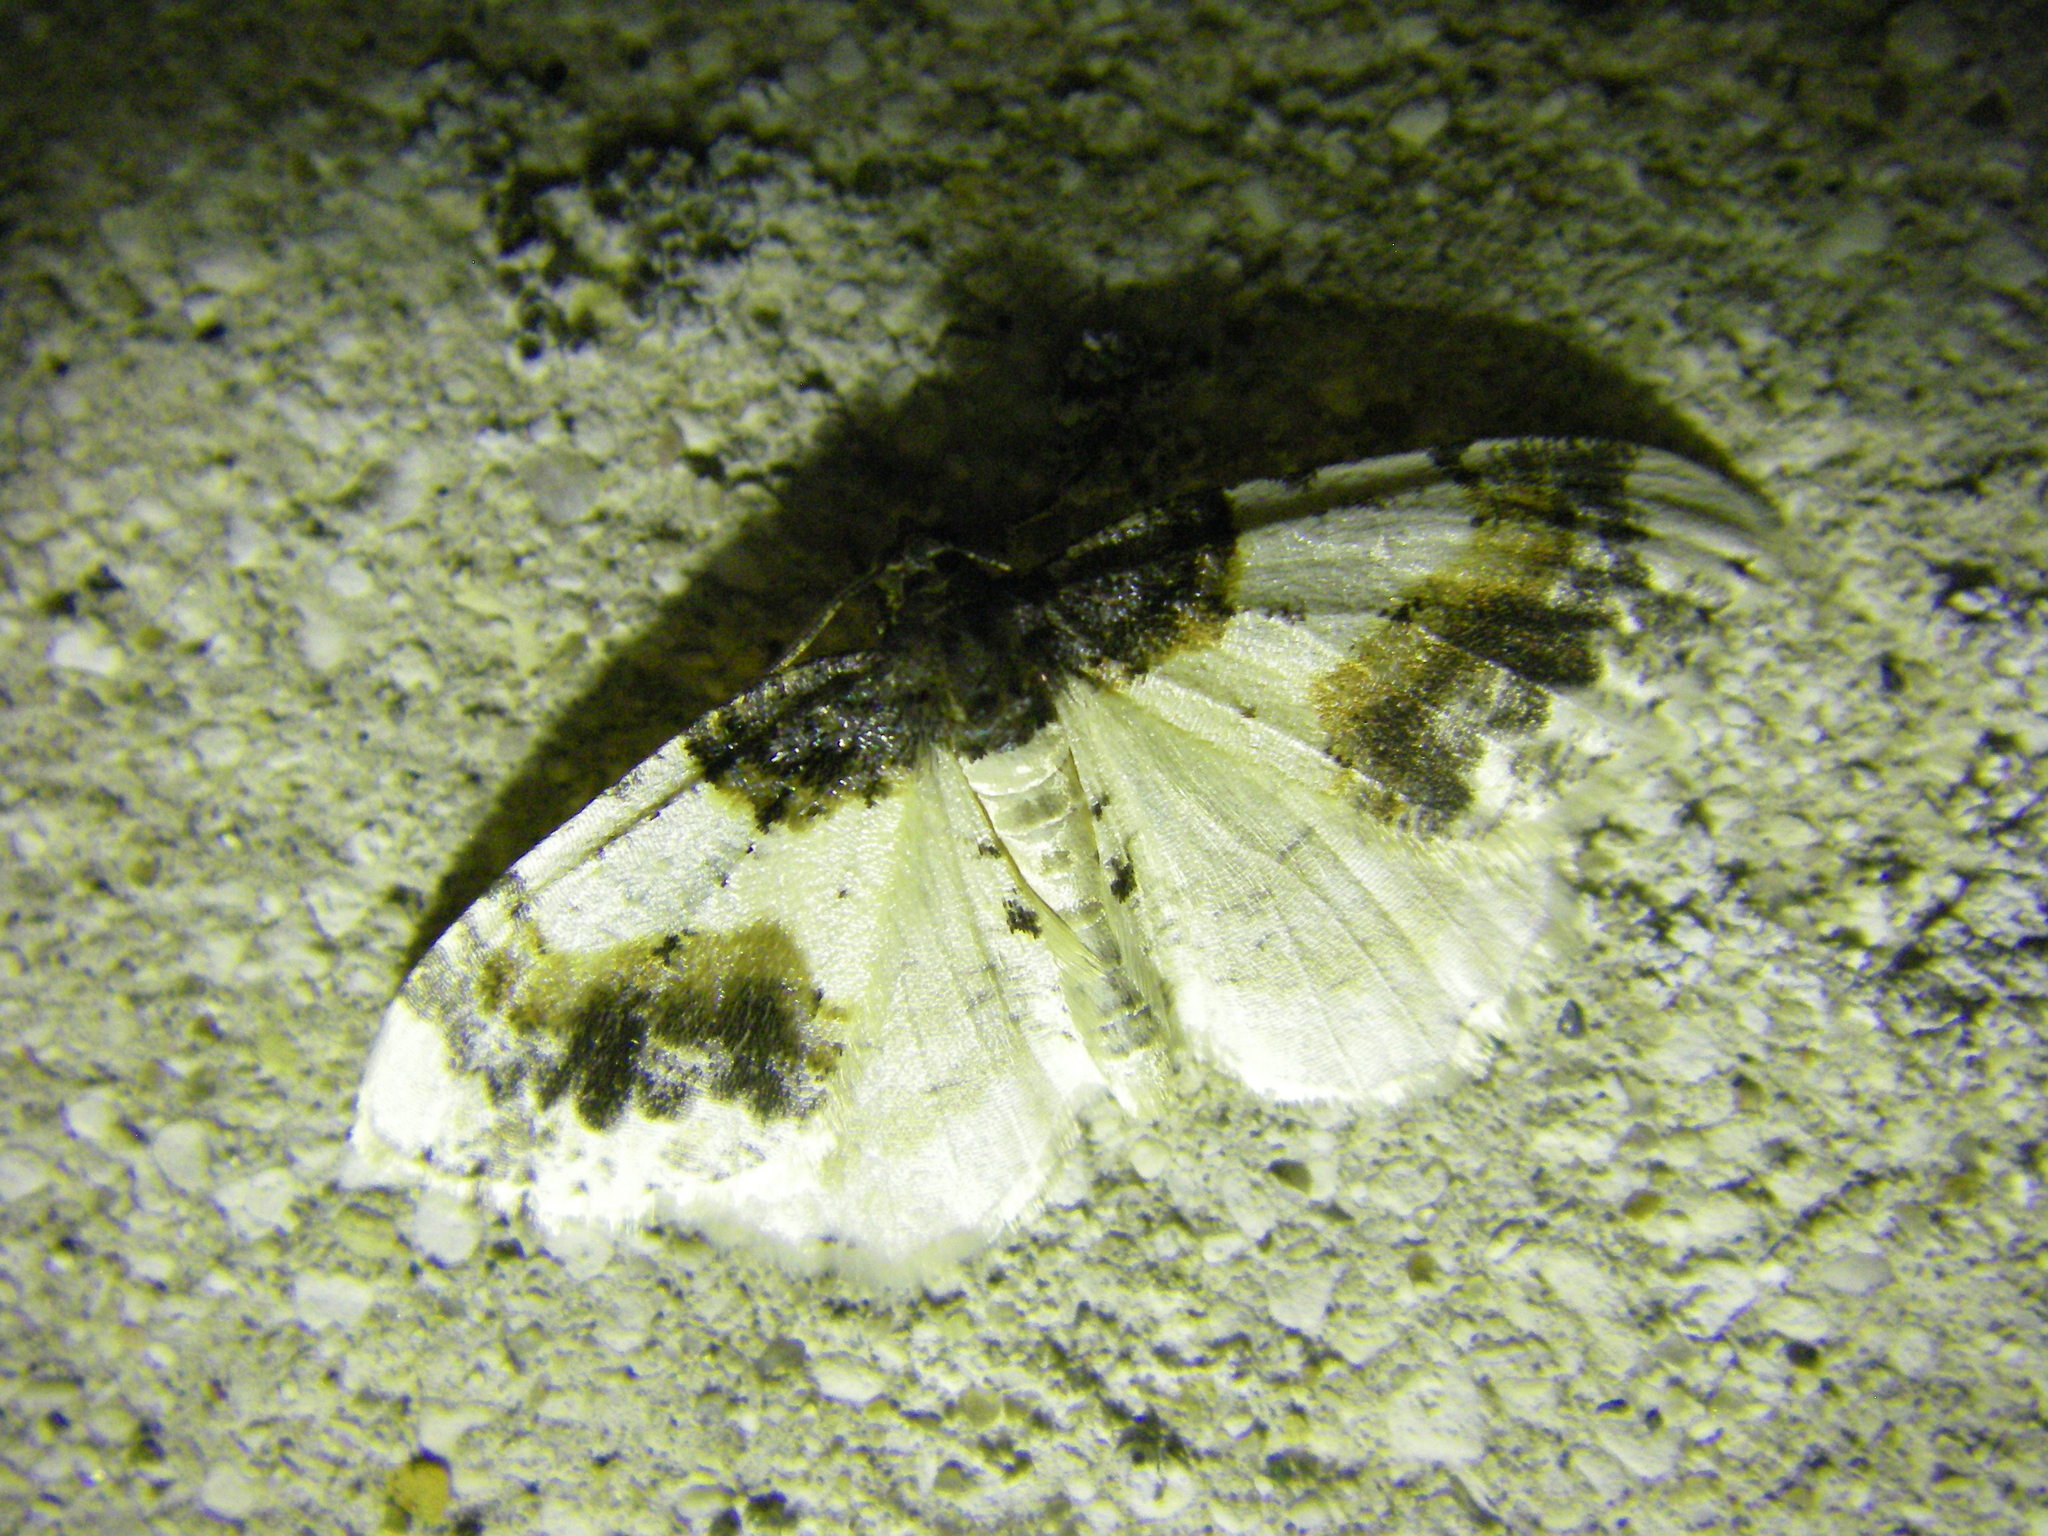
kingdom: Animalia
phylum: Arthropoda
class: Insecta
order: Lepidoptera
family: Geometridae
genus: Ligdia
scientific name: Ligdia adustata
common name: Scorched carpet
